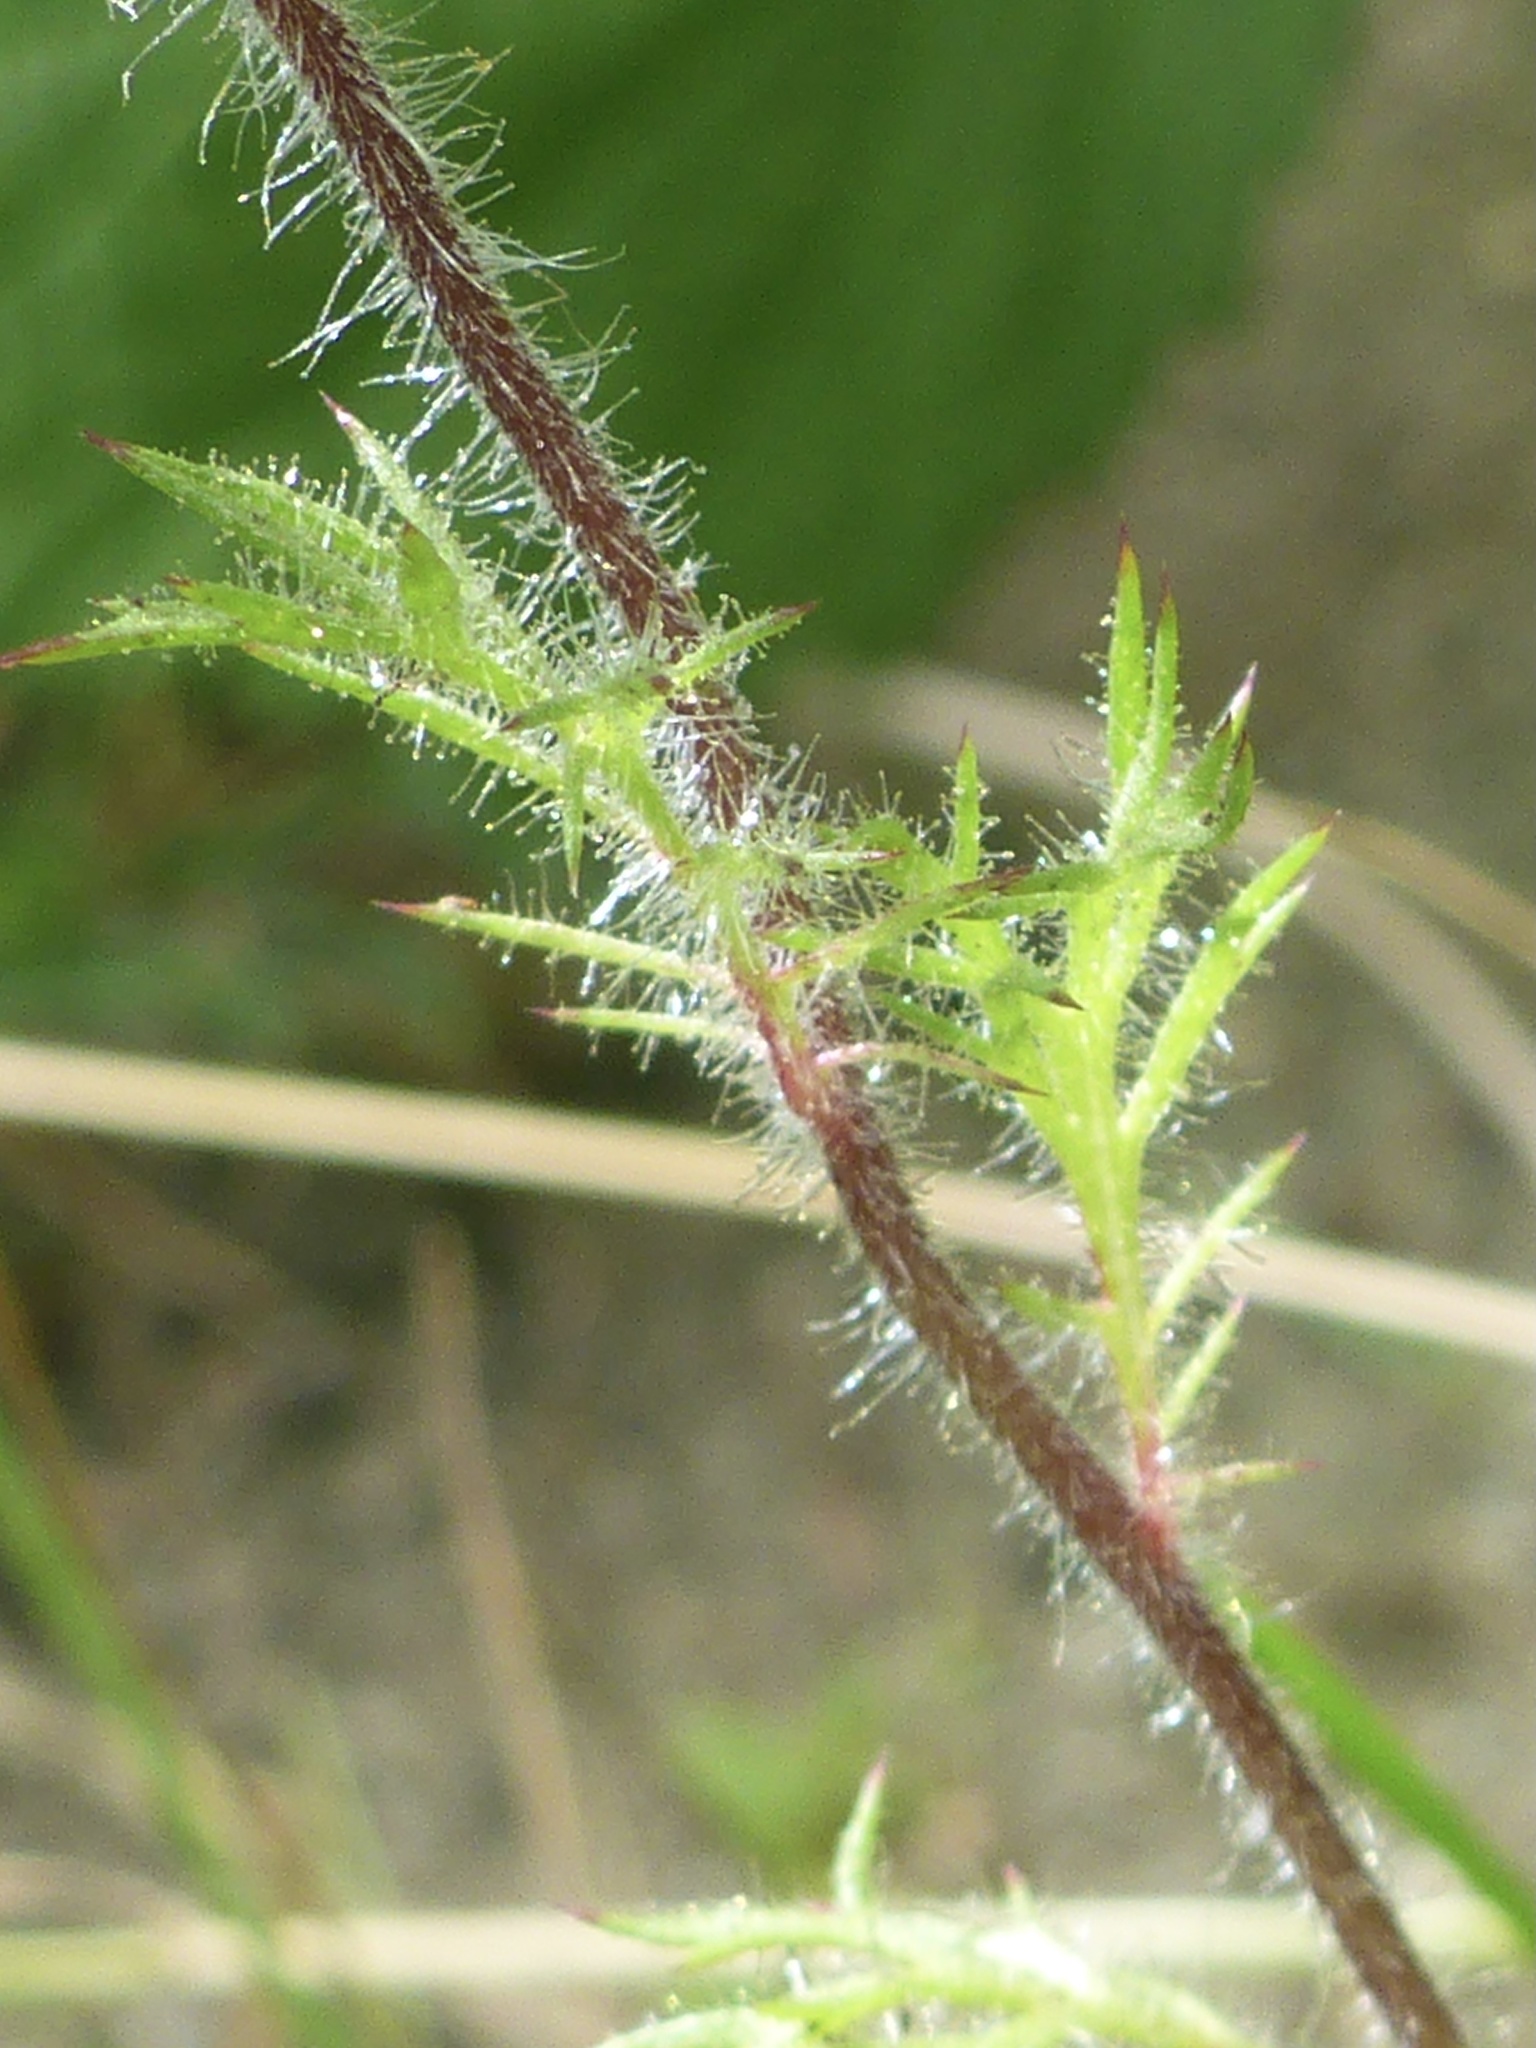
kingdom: Plantae
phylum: Tracheophyta
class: Magnoliopsida
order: Ericales
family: Polemoniaceae
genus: Navarretia
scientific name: Navarretia squarrosa
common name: Skunkweed
